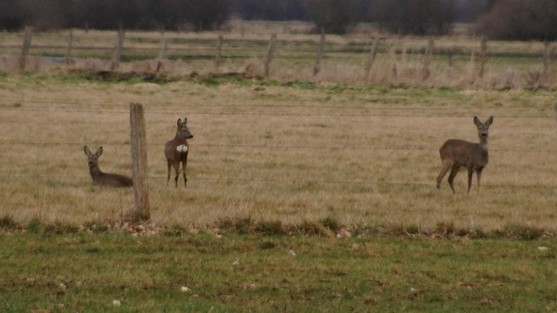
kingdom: Animalia
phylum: Chordata
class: Mammalia
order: Artiodactyla
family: Cervidae
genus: Capreolus
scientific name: Capreolus capreolus
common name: Western roe deer
